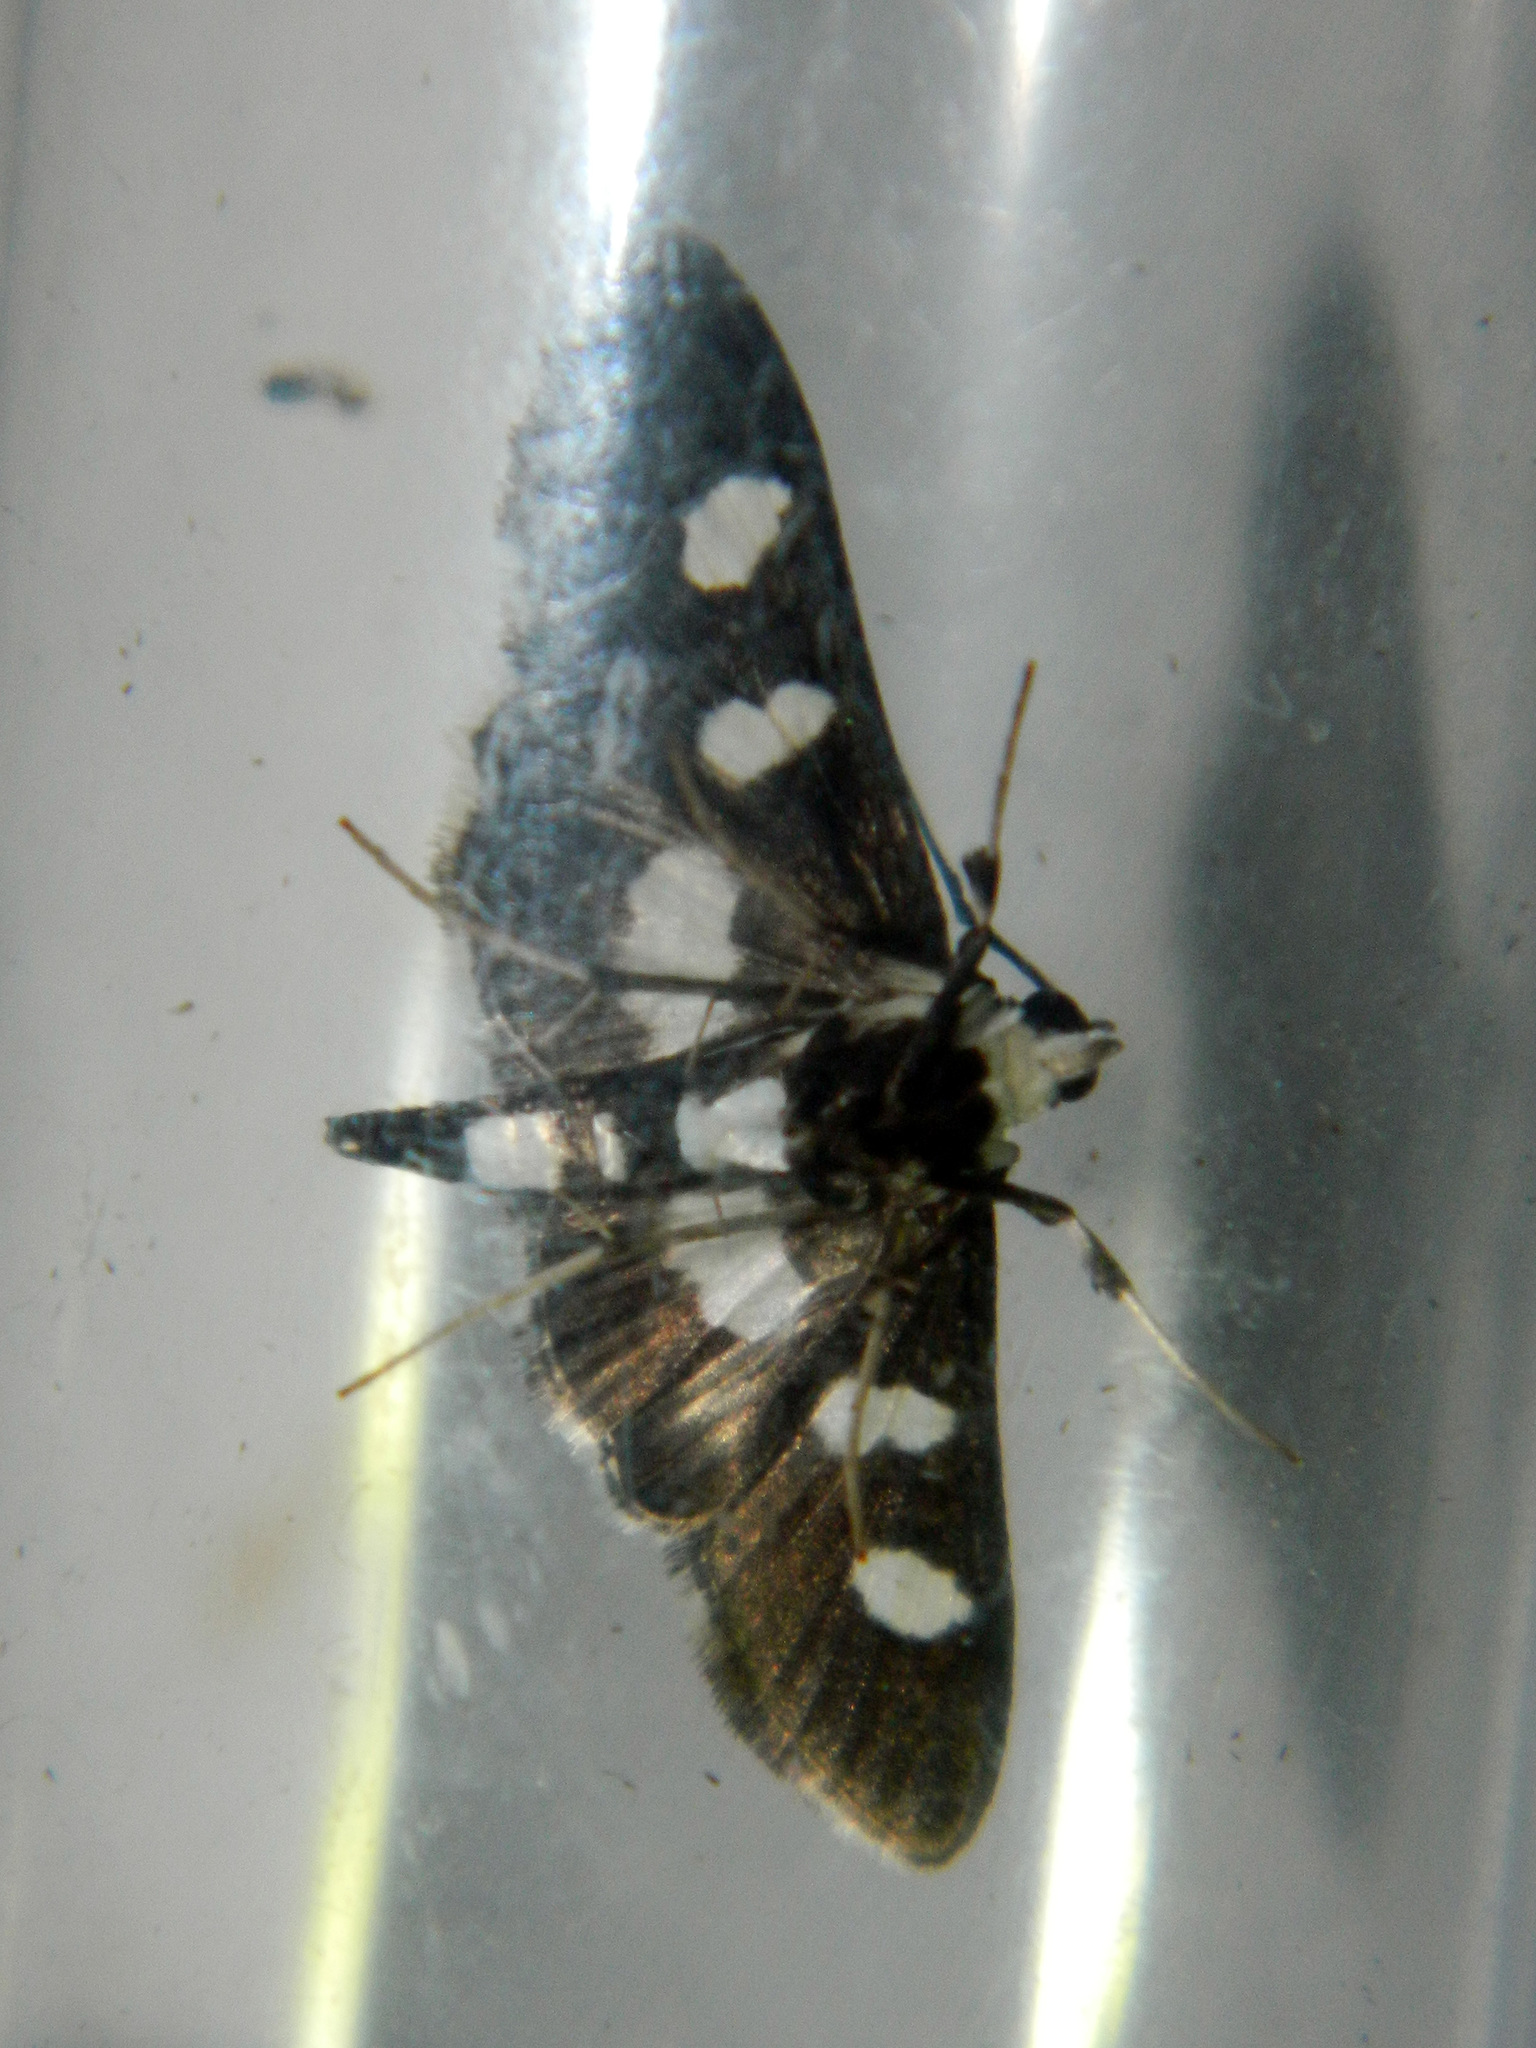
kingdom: Animalia
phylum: Arthropoda
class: Insecta
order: Lepidoptera
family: Crambidae
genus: Desmia
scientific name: Desmia funeralis
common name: Grape leaf folder moth
